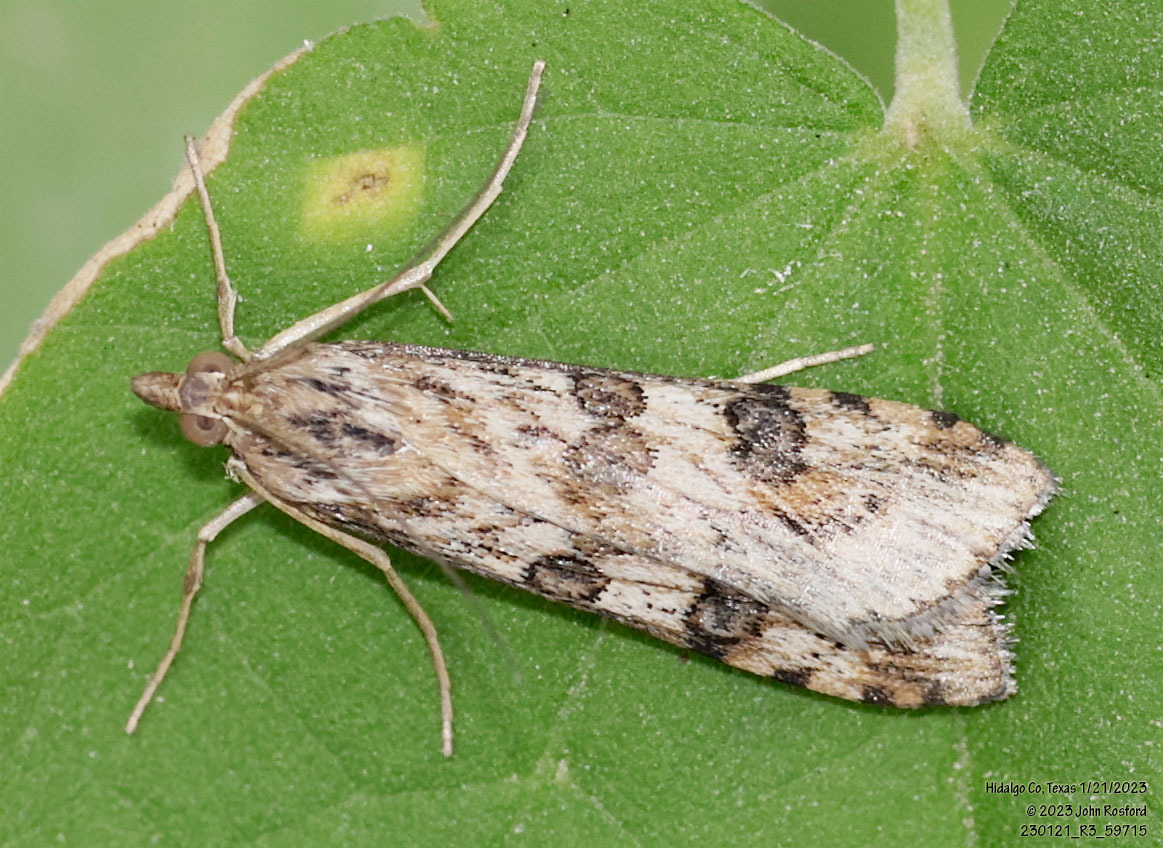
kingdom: Animalia
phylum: Arthropoda
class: Insecta
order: Lepidoptera
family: Crambidae
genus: Nomophila
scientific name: Nomophila nearctica
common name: American rush veneer
